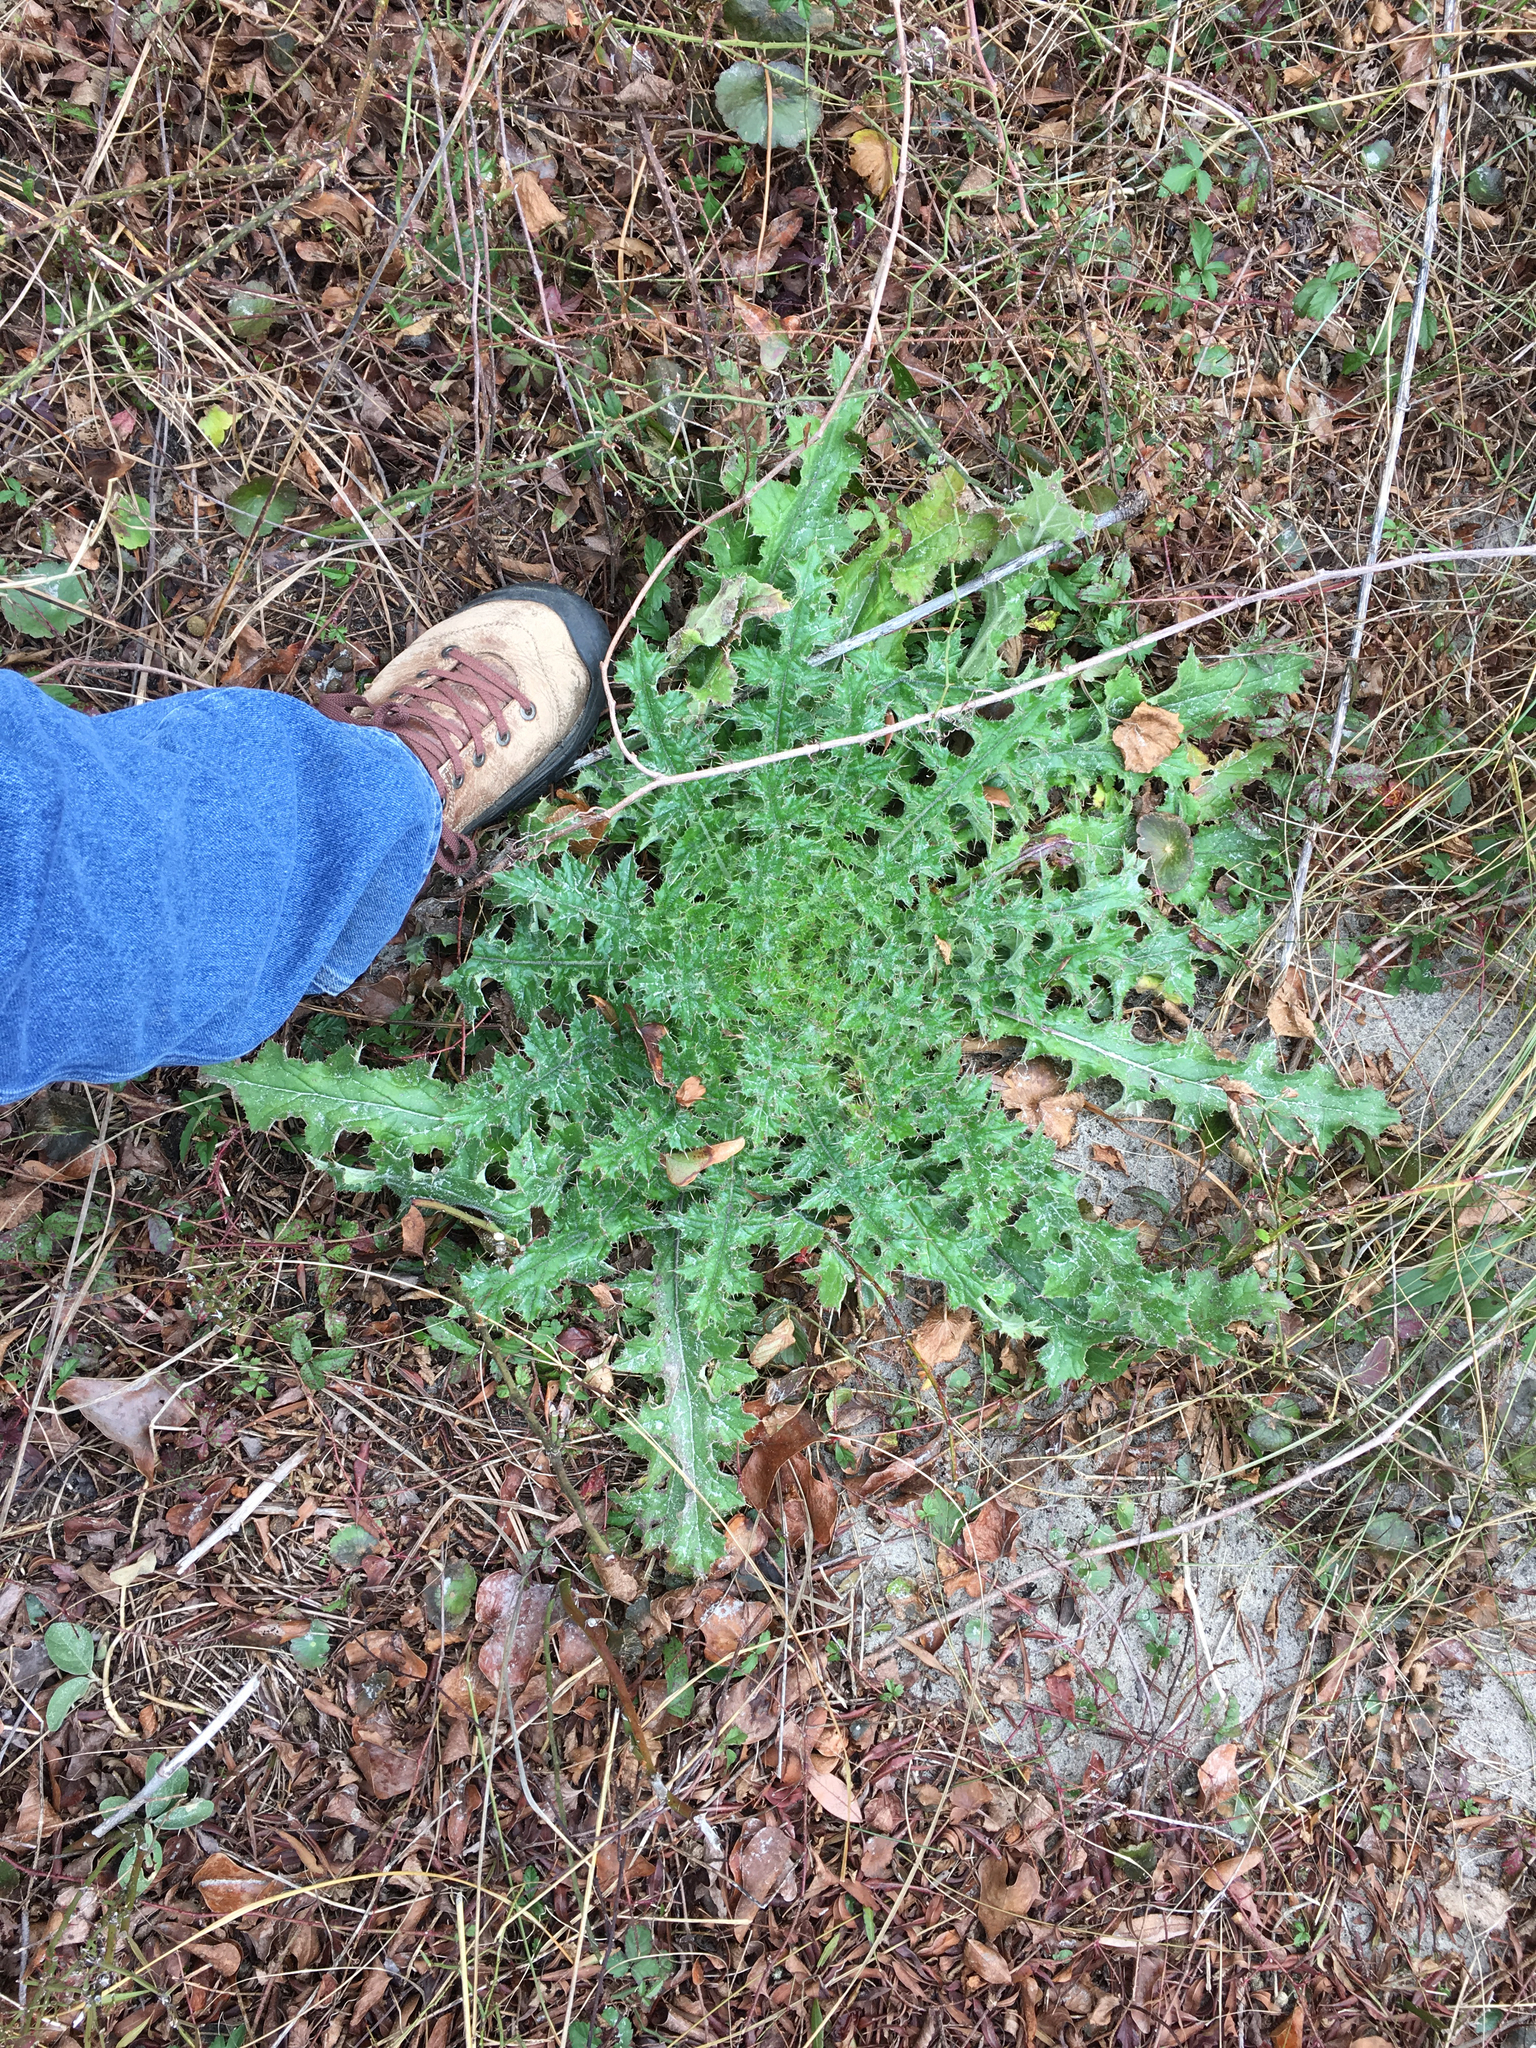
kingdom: Plantae
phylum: Tracheophyta
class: Magnoliopsida
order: Asterales
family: Asteraceae
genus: Cirsium
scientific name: Cirsium horridulum
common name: Bristly thistle
